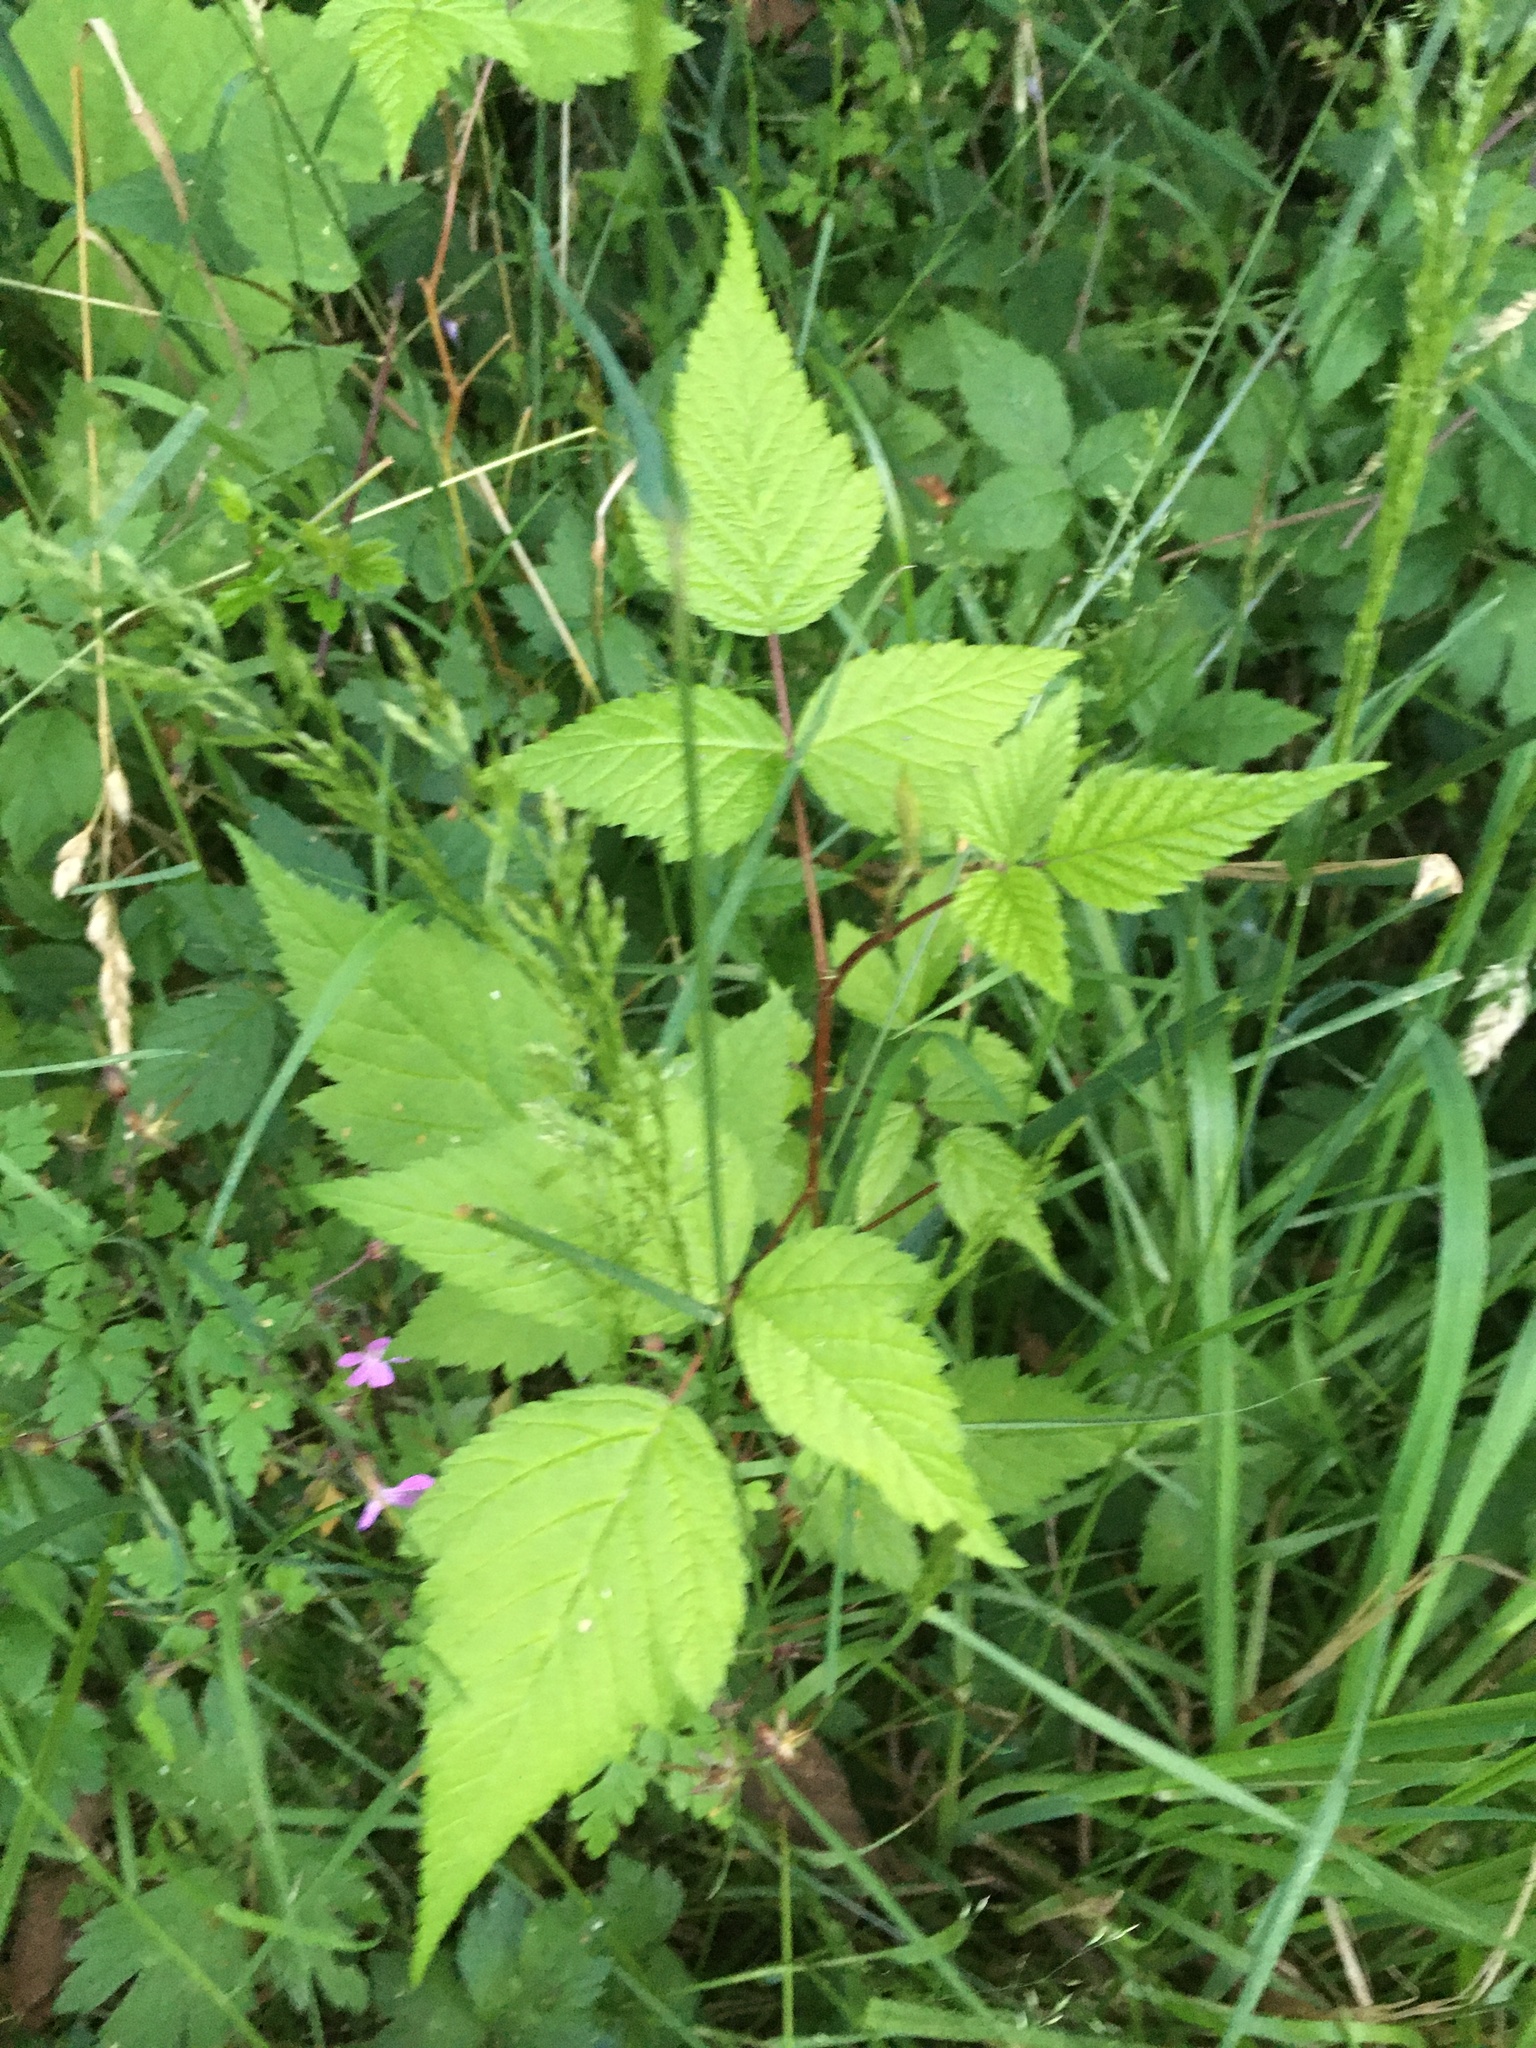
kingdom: Plantae
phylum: Tracheophyta
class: Magnoliopsida
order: Rosales
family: Rosaceae
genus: Rubus
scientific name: Rubus spectabilis
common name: Salmonberry
